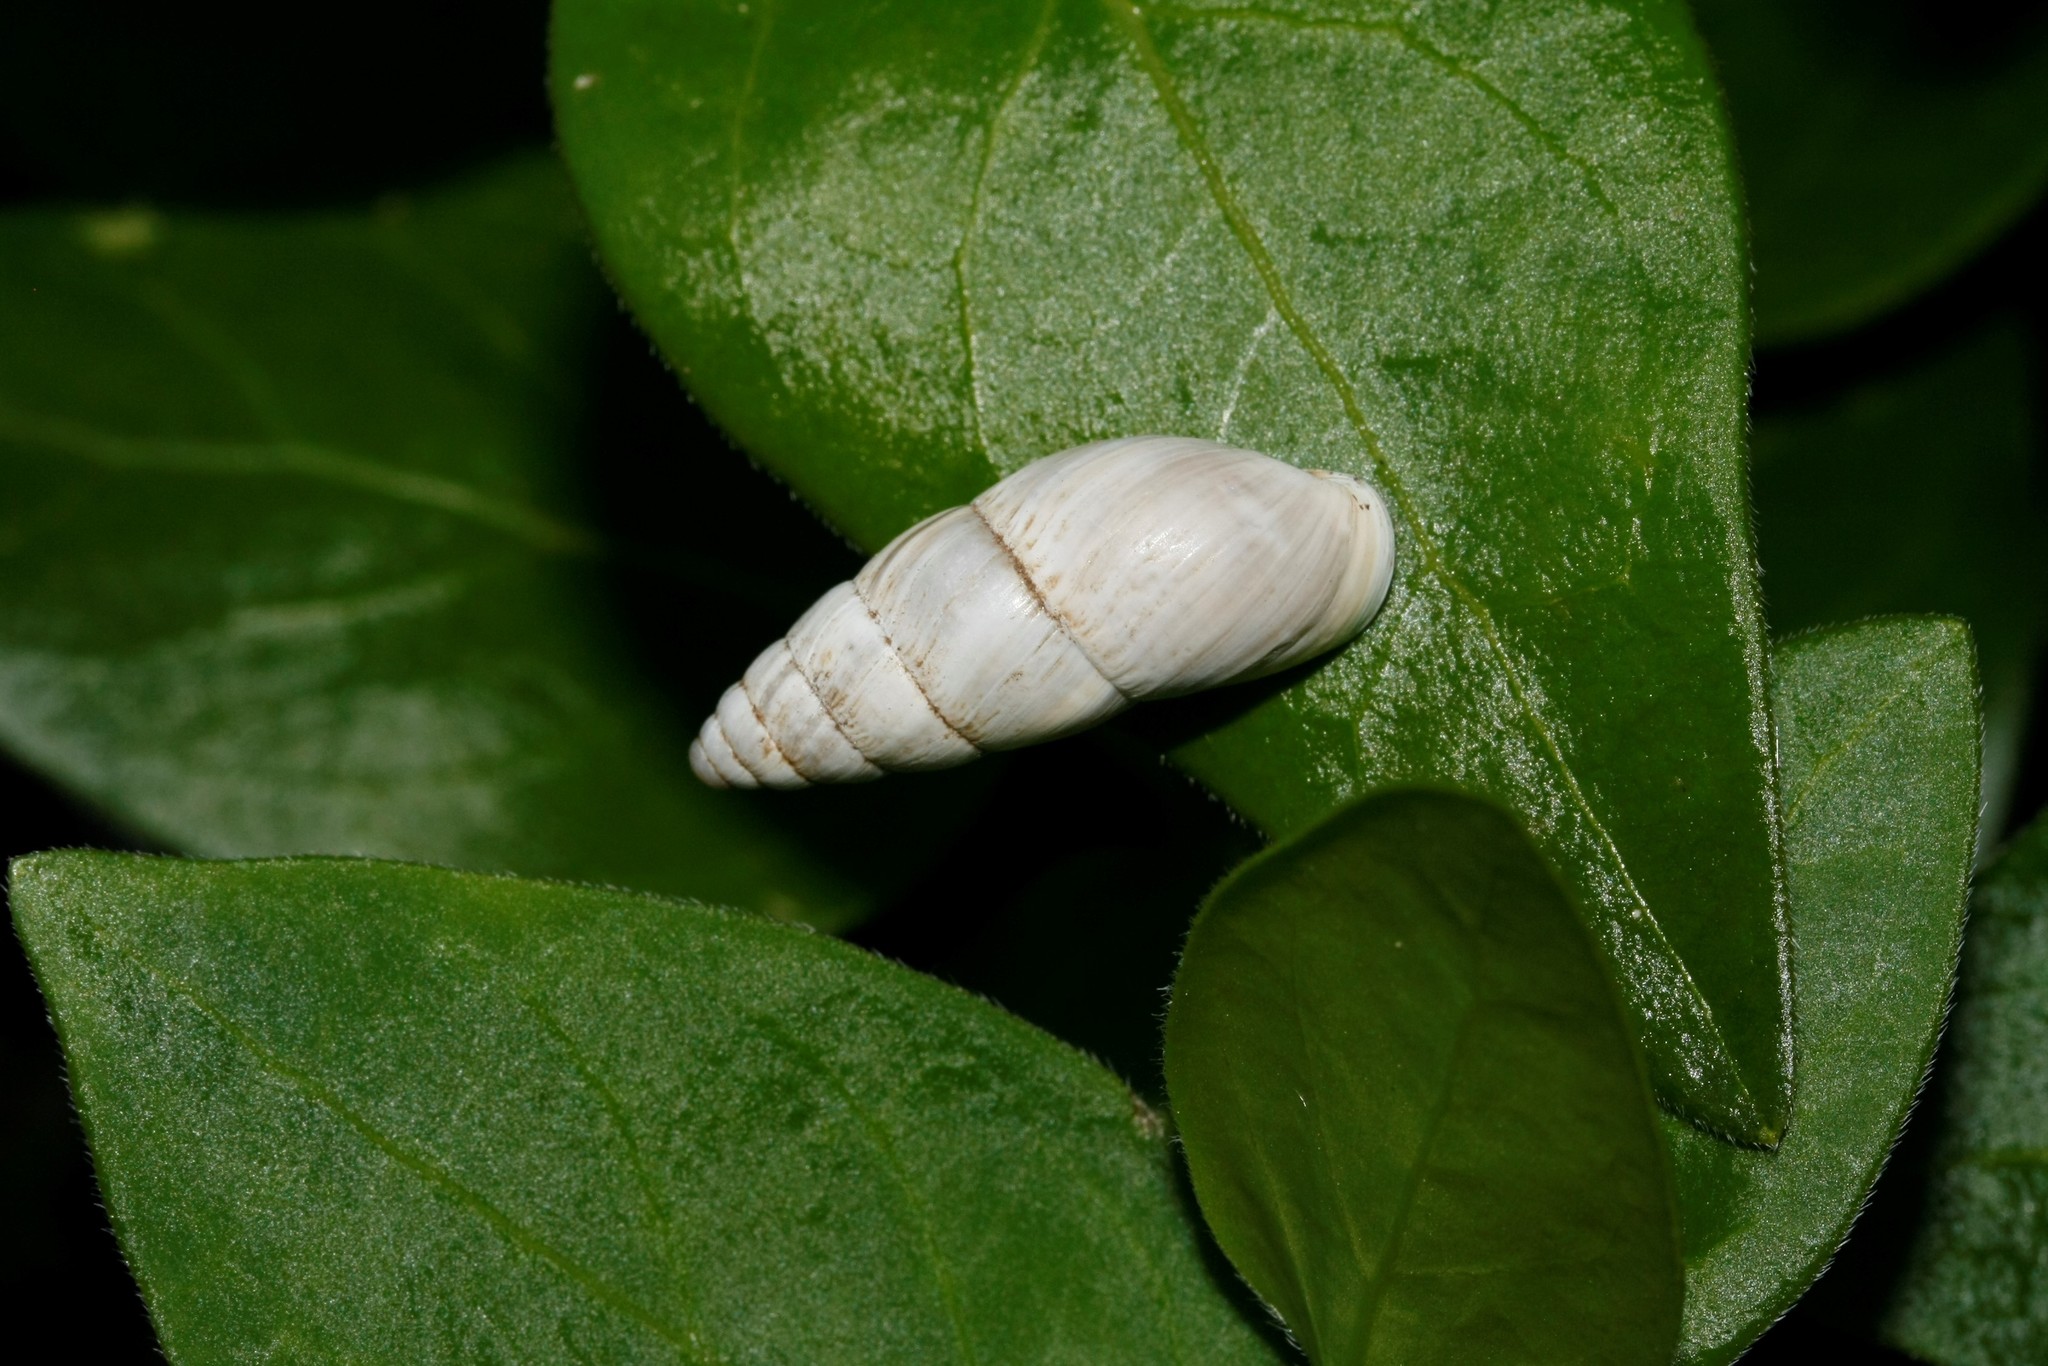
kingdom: Animalia
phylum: Mollusca
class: Gastropoda
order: Stylommatophora
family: Enidae
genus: Zebrina
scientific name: Zebrina detrita
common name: Large bulin
